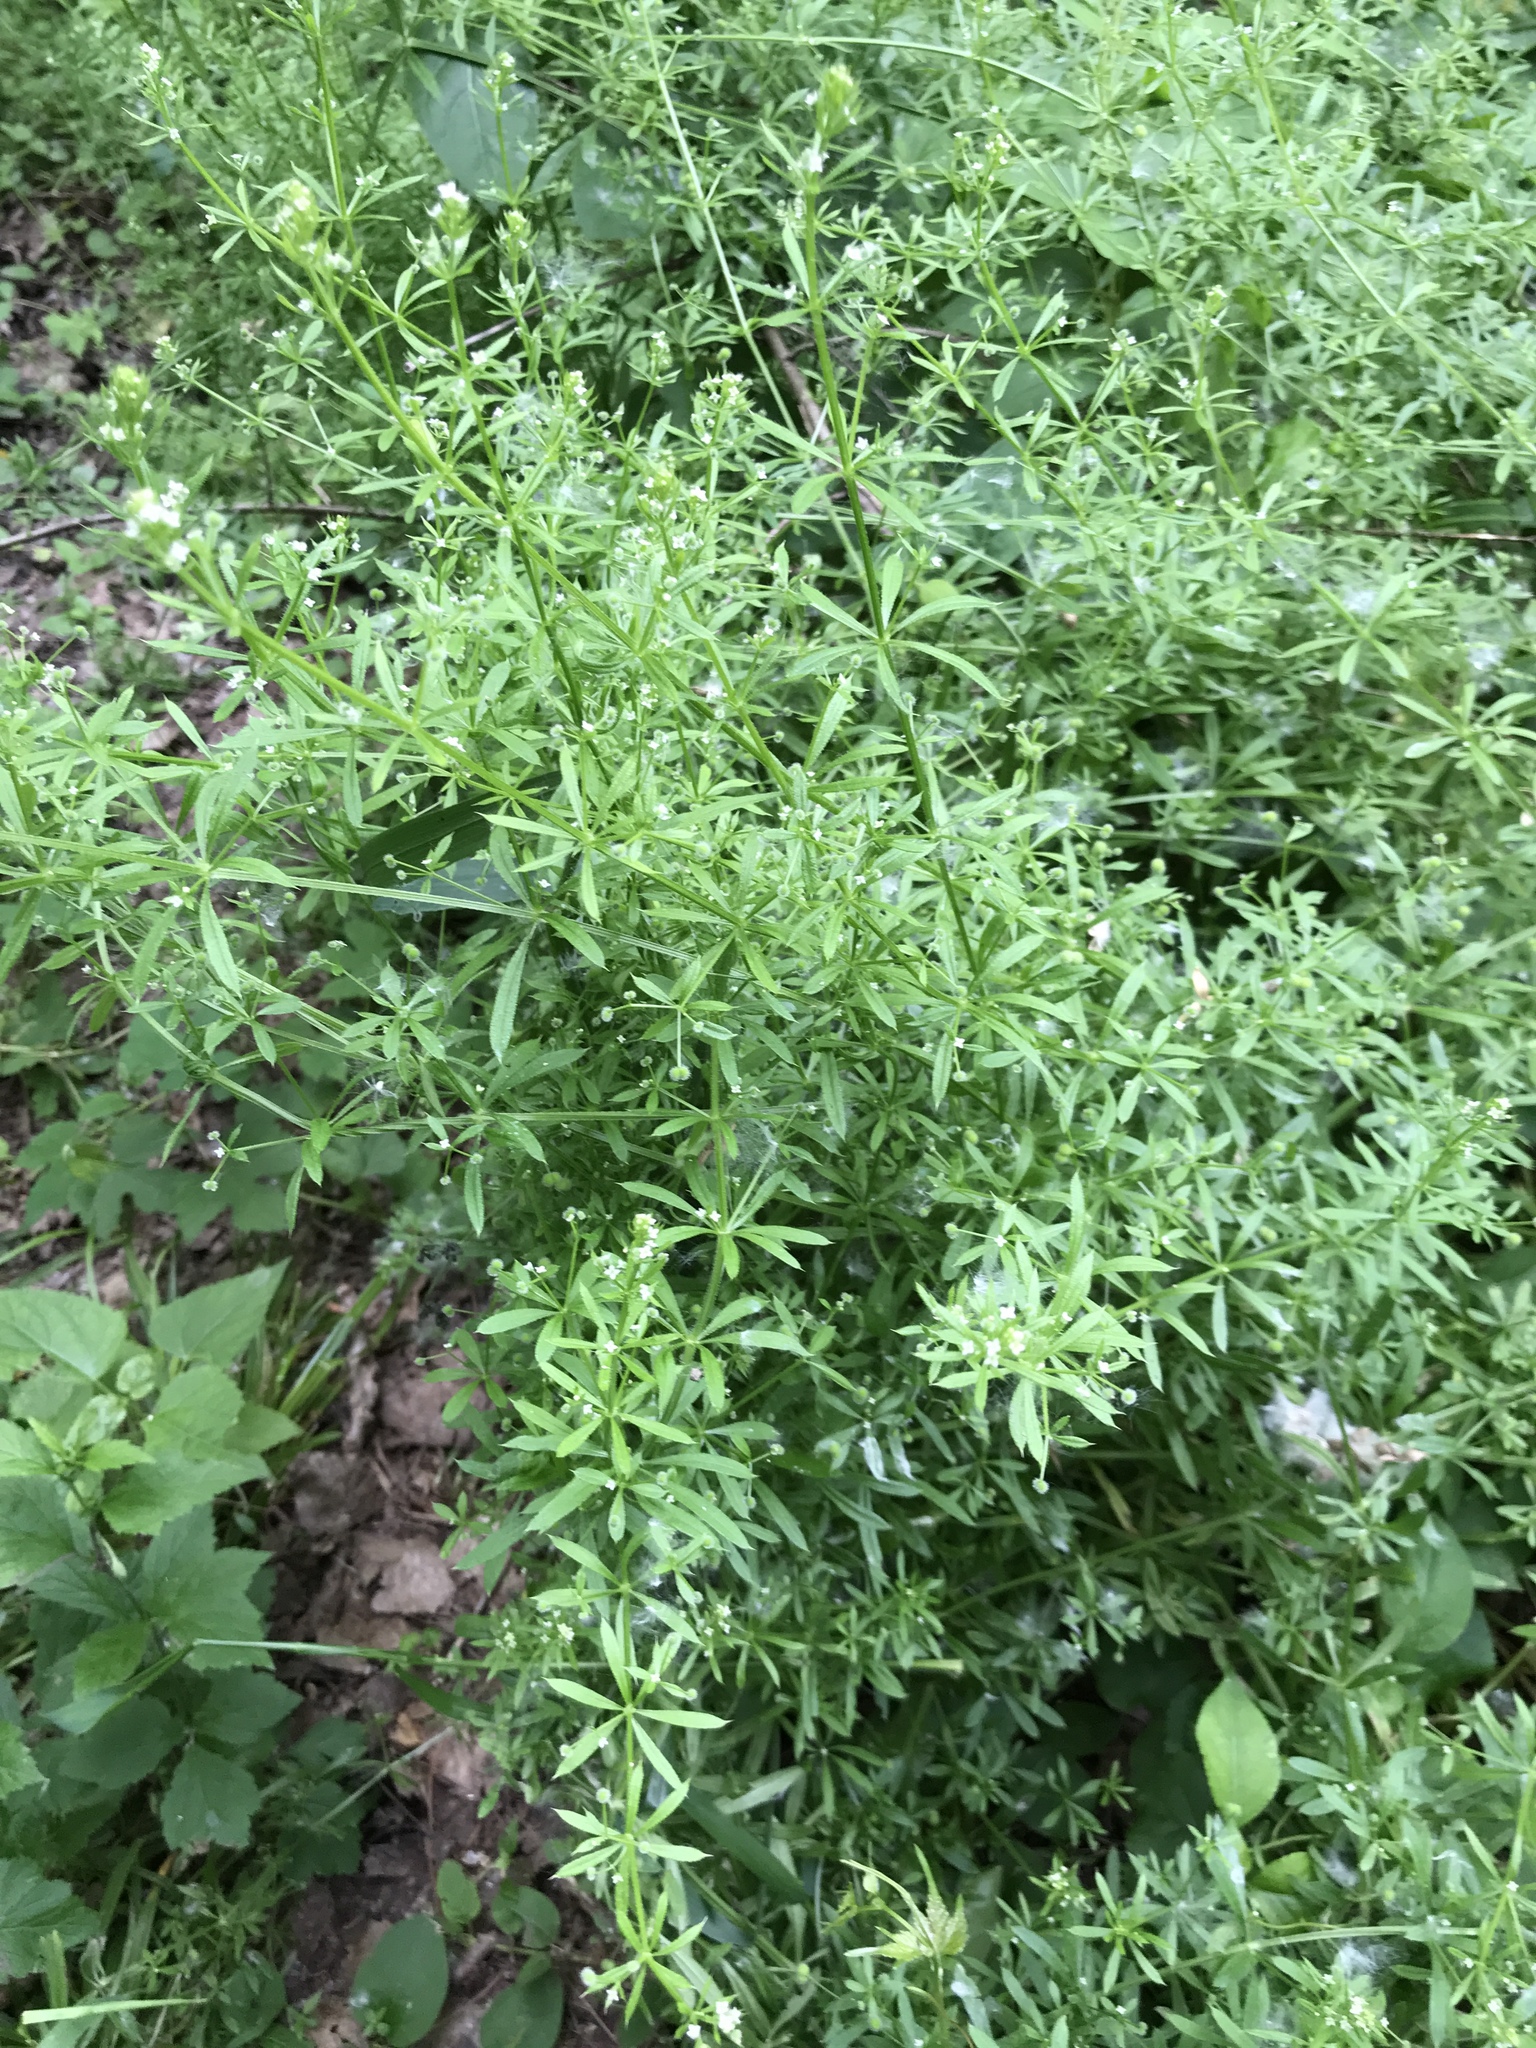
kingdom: Plantae
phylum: Tracheophyta
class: Magnoliopsida
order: Gentianales
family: Rubiaceae
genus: Galium
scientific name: Galium aparine
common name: Cleavers
